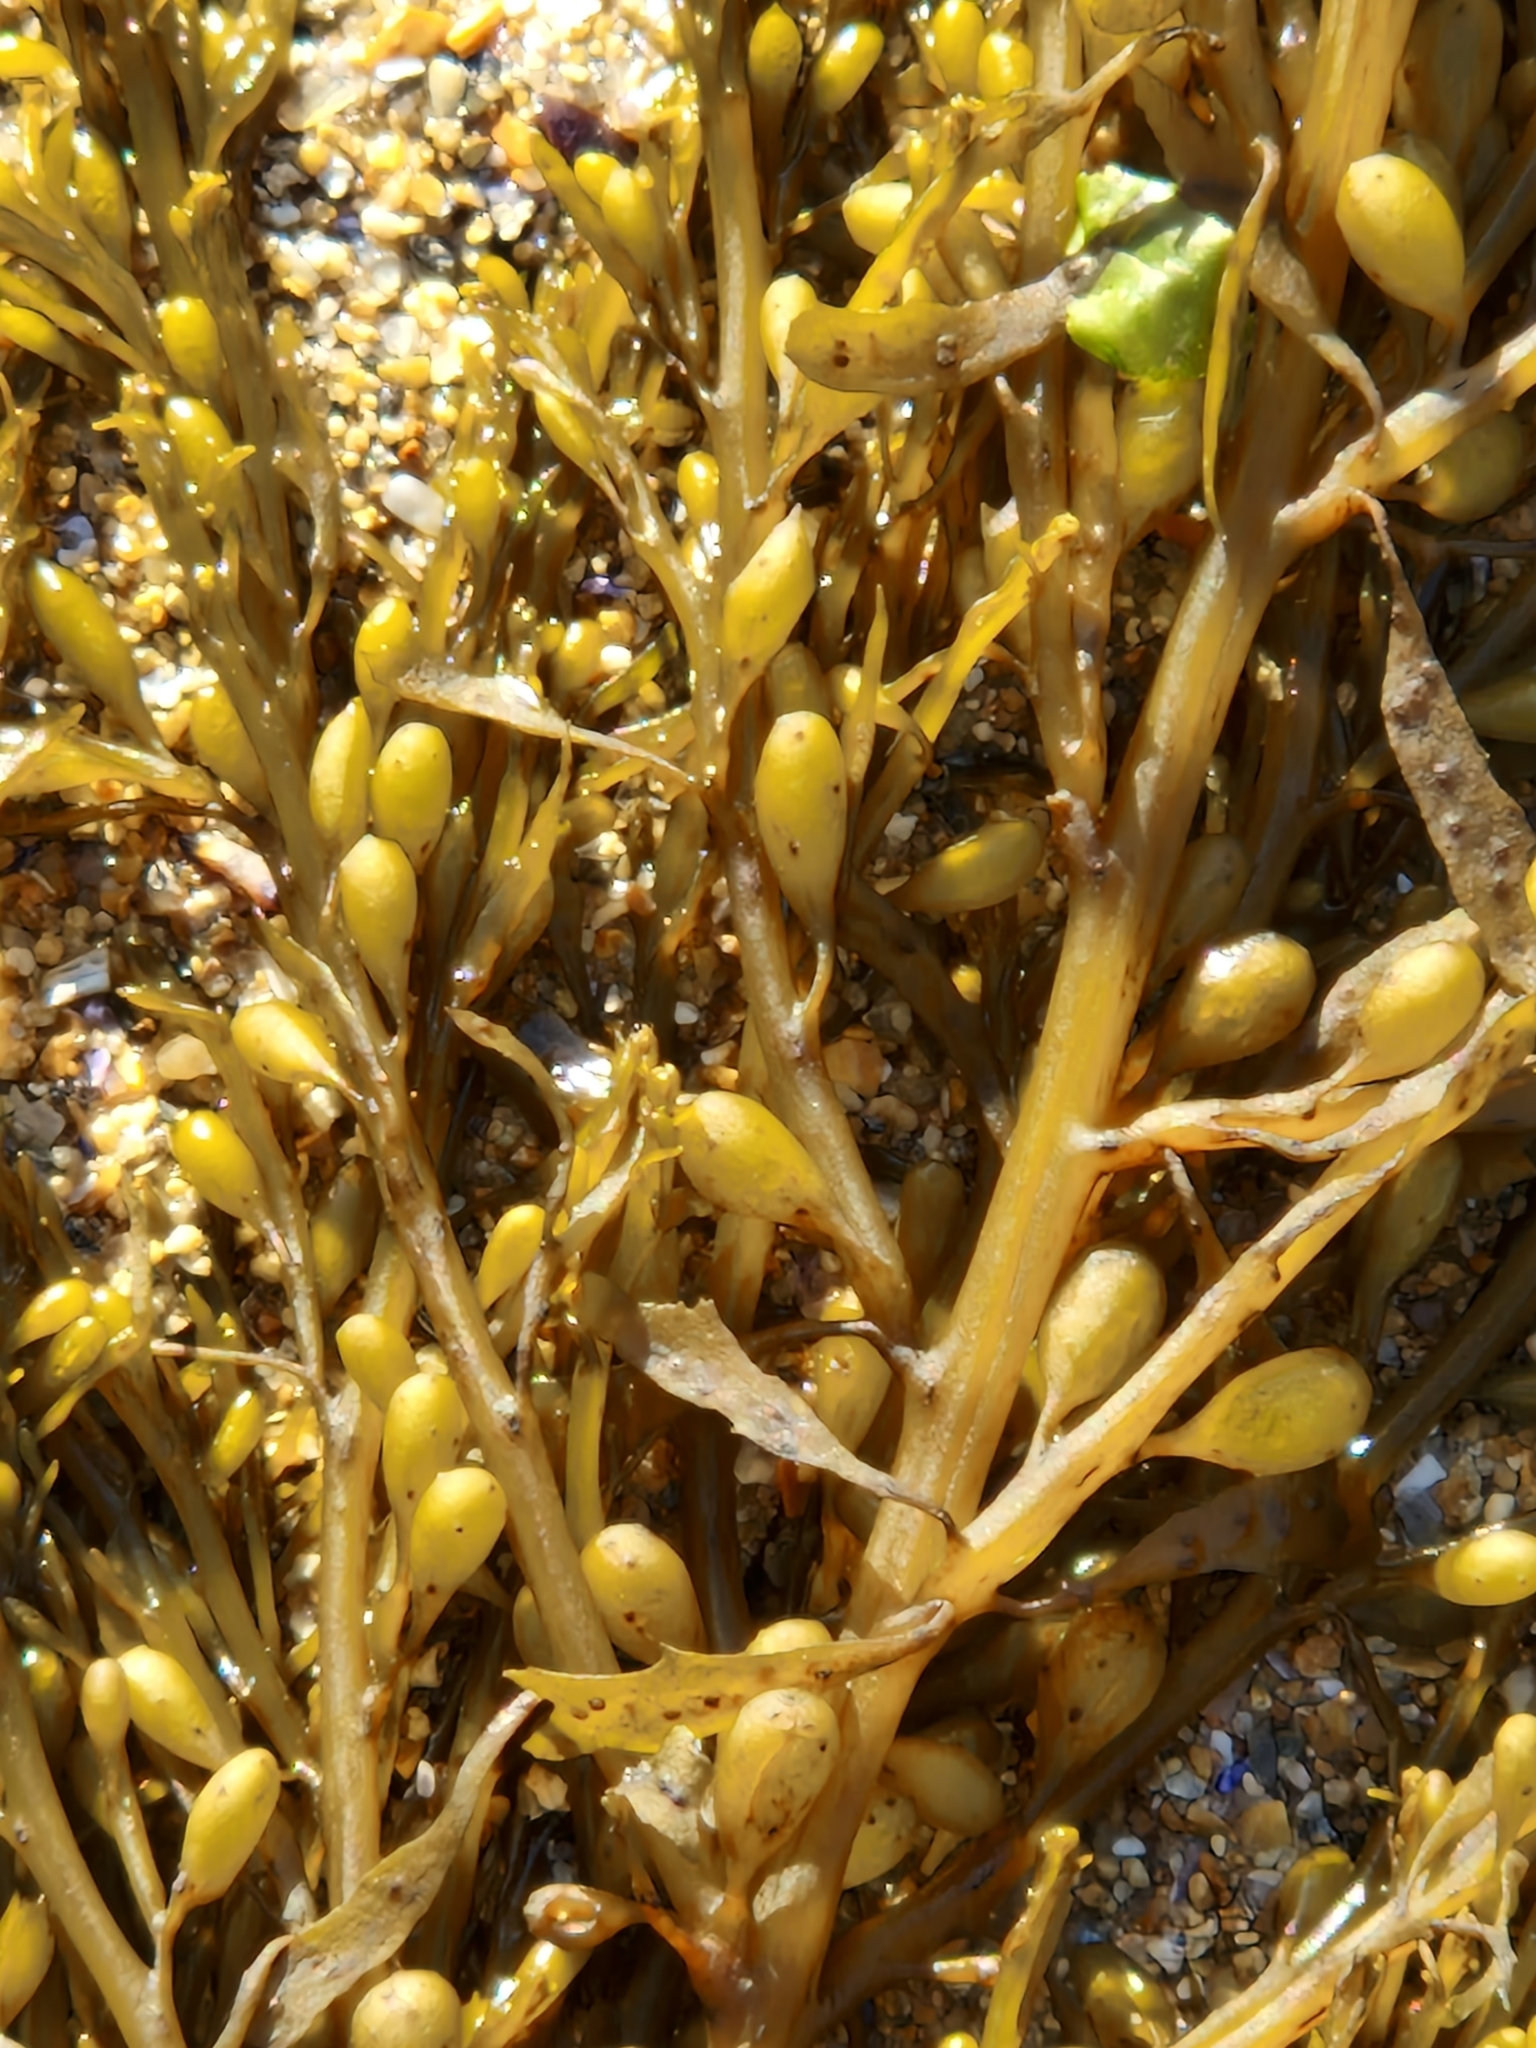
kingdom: Chromista
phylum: Ochrophyta
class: Phaeophyceae
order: Fucales
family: Sargassaceae
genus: Sargassum
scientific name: Sargassum muticum
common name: Japweed
